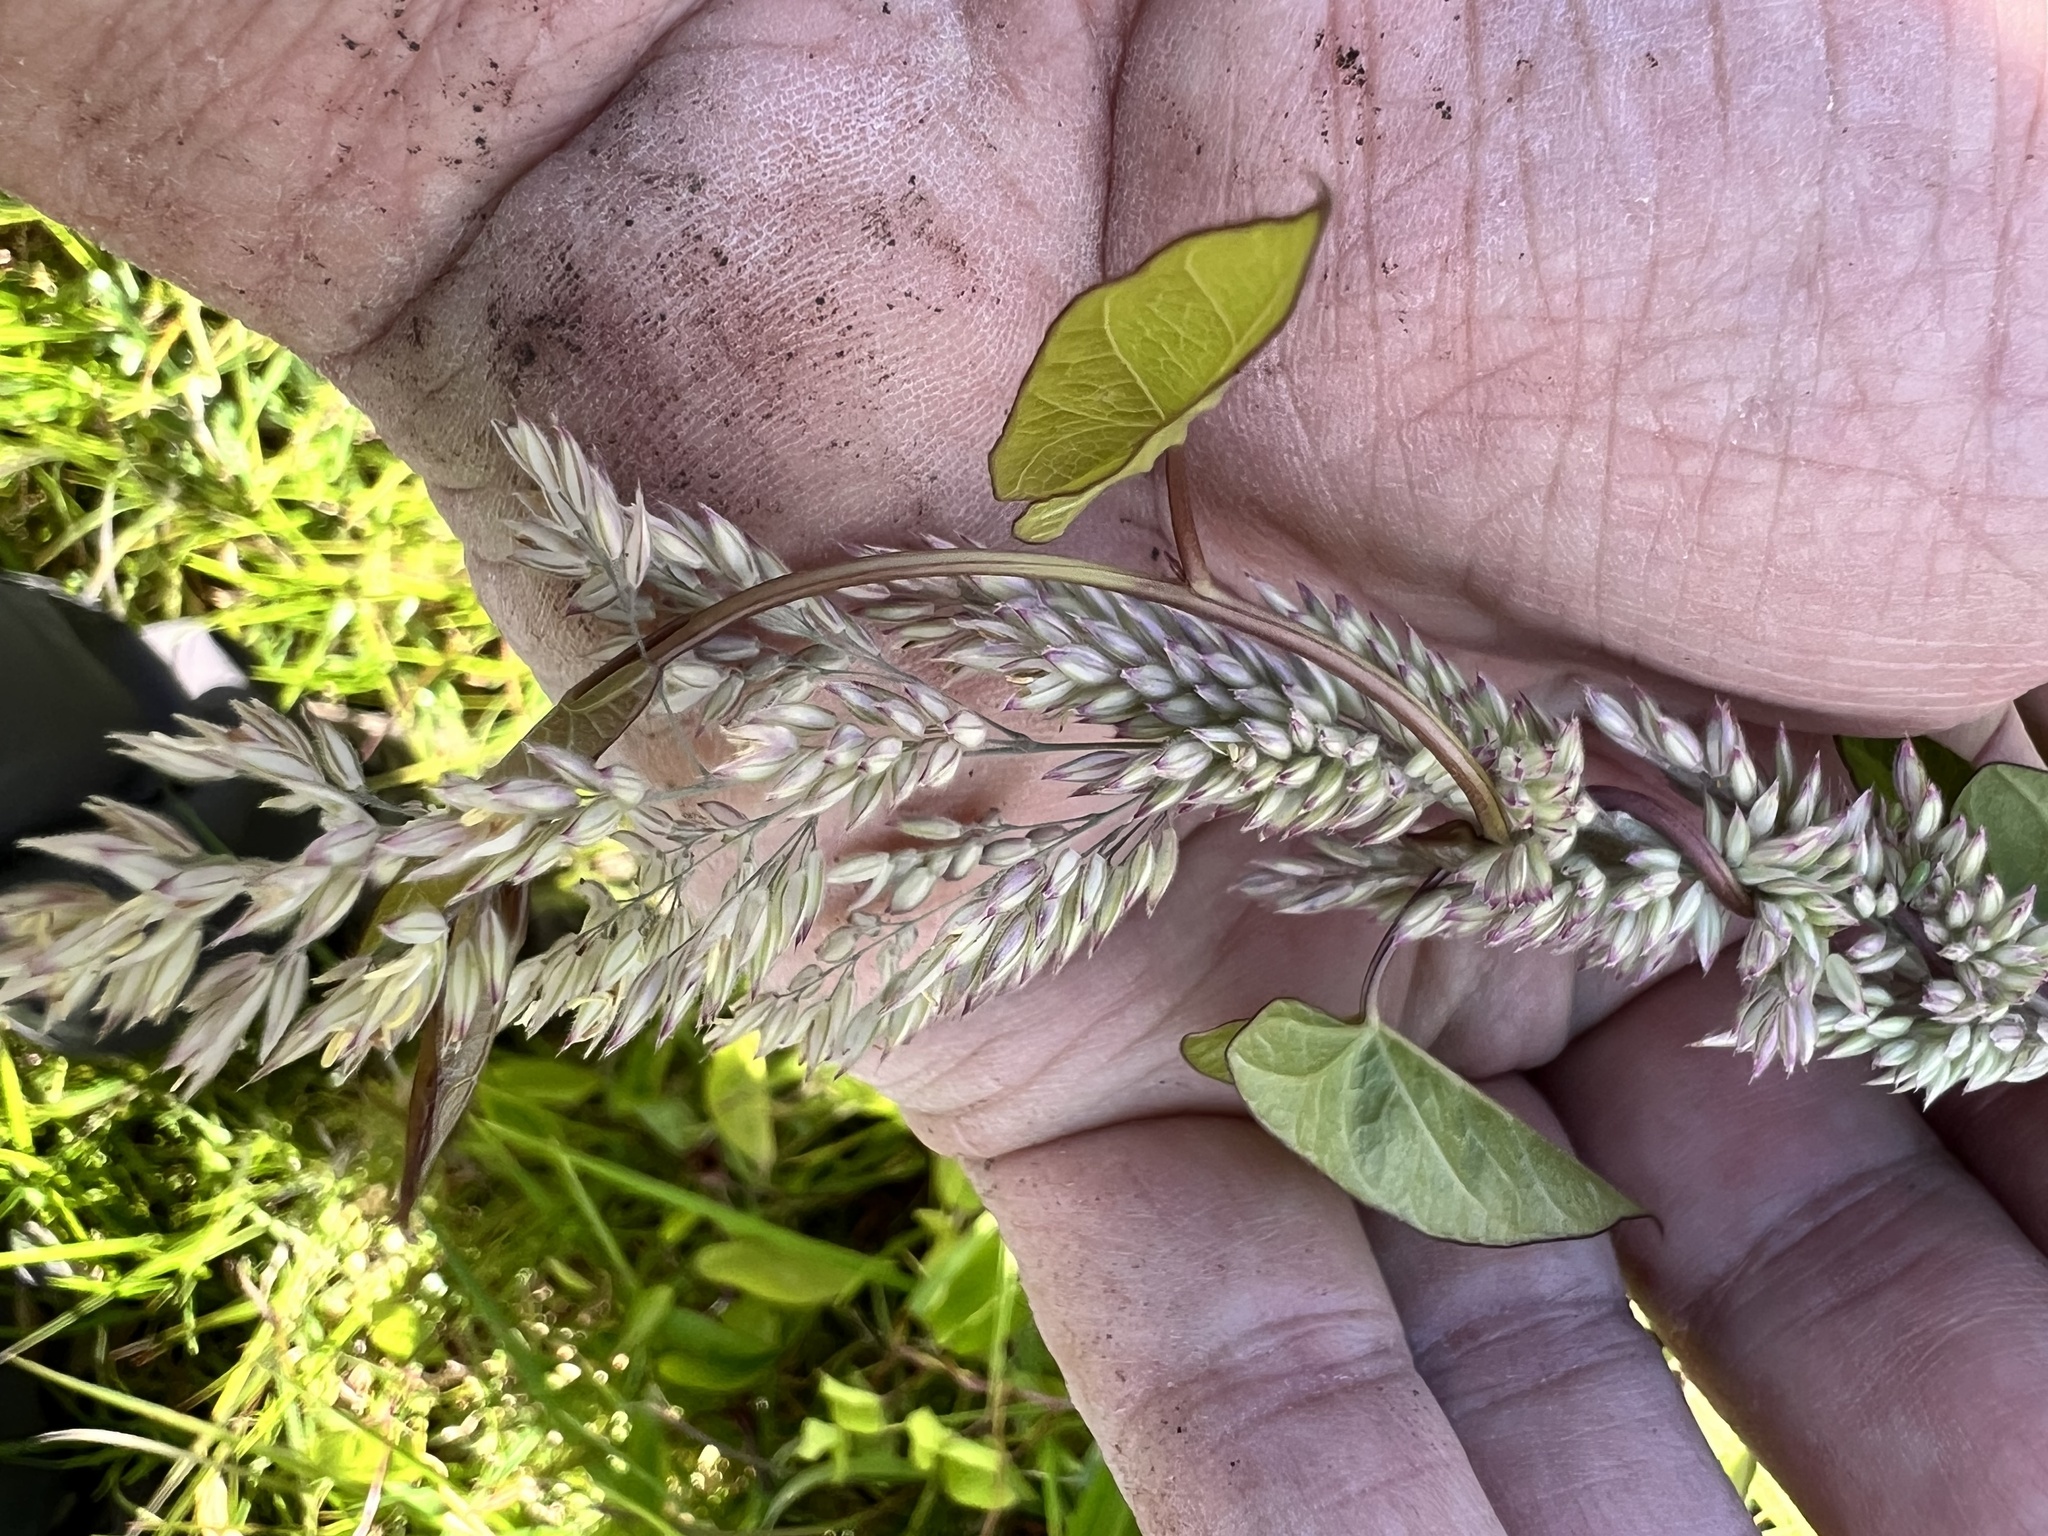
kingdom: Plantae
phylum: Tracheophyta
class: Liliopsida
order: Poales
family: Poaceae
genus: Holcus
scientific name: Holcus lanatus
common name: Yorkshire-fog
